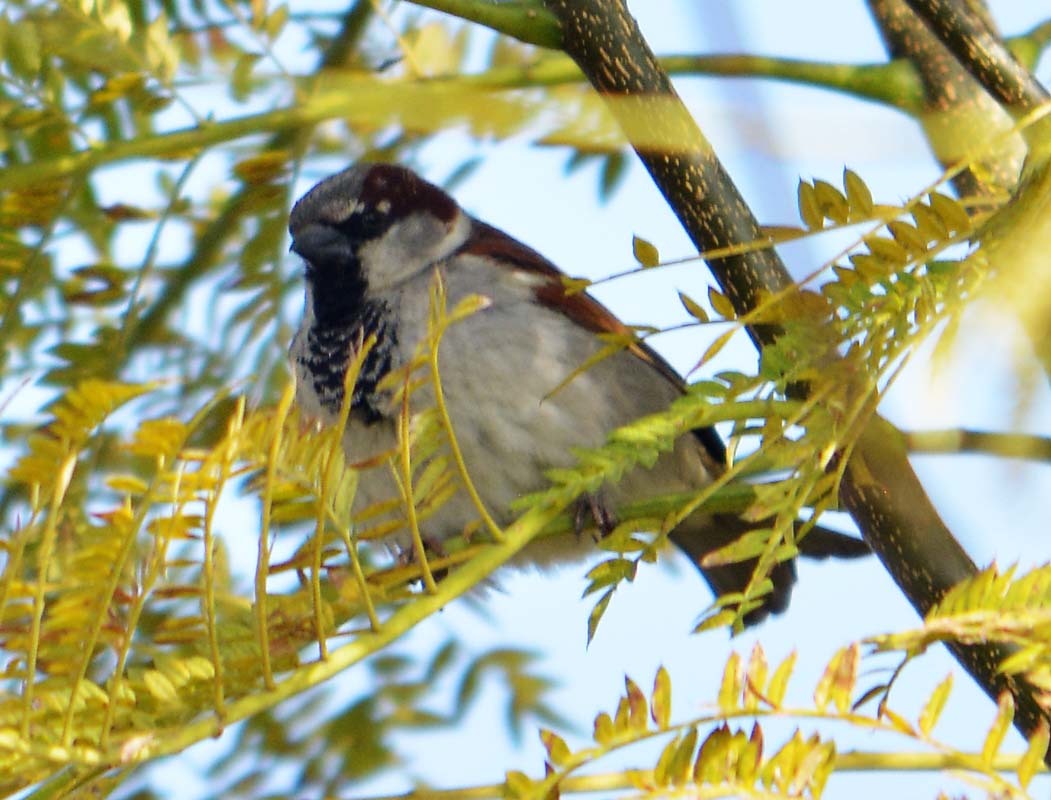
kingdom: Animalia
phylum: Chordata
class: Aves
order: Passeriformes
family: Passeridae
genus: Passer
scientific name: Passer domesticus
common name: House sparrow
